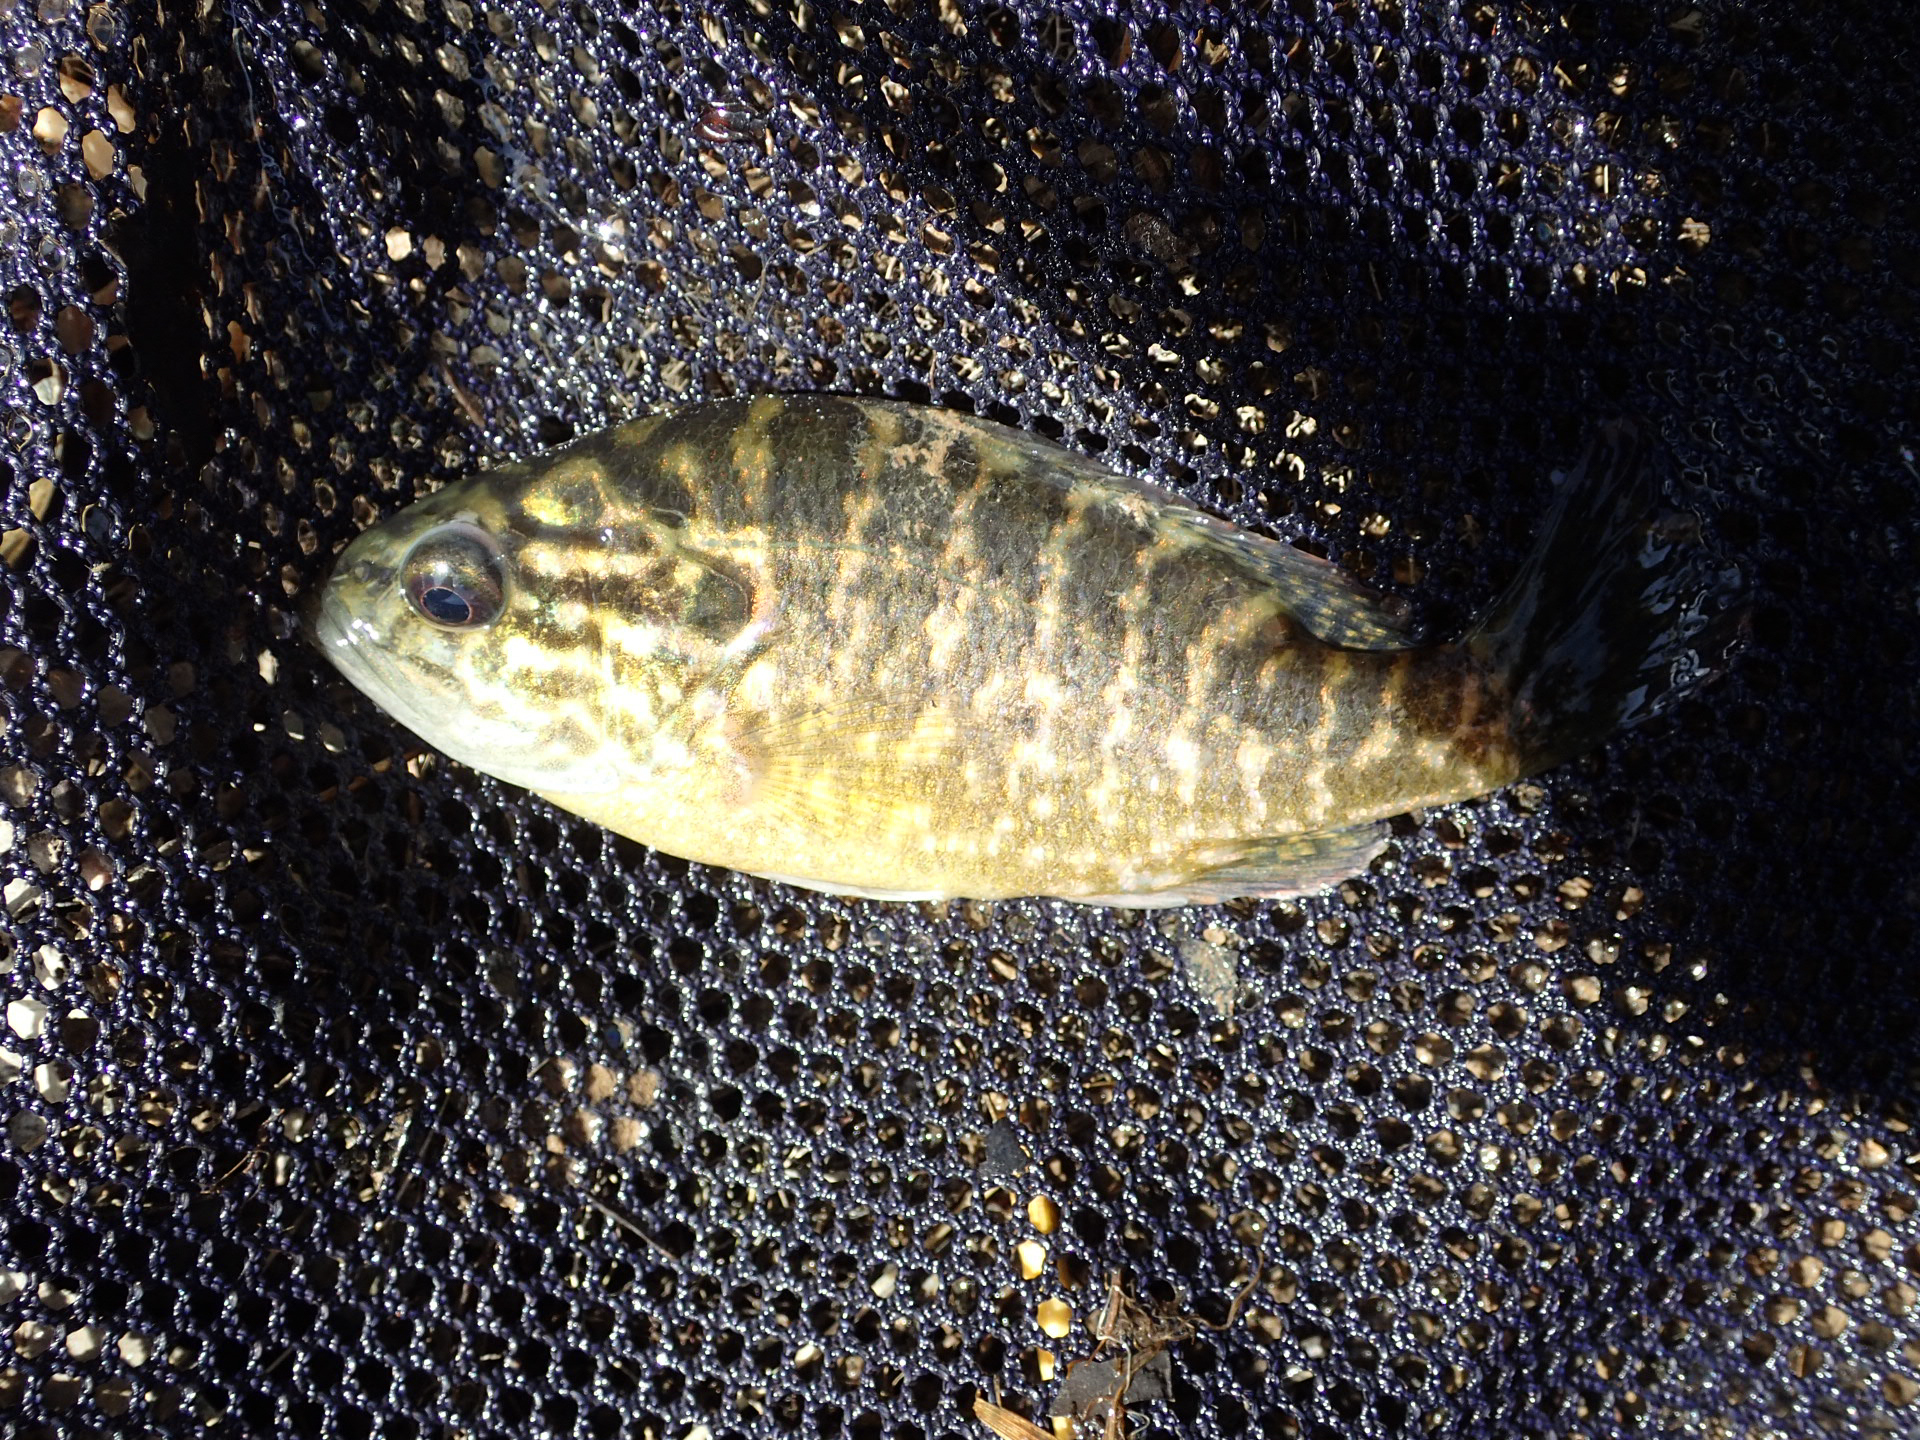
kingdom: Animalia
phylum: Chordata
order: Perciformes
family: Centrarchidae
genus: Lepomis
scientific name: Lepomis gulosus
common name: Warmouth
